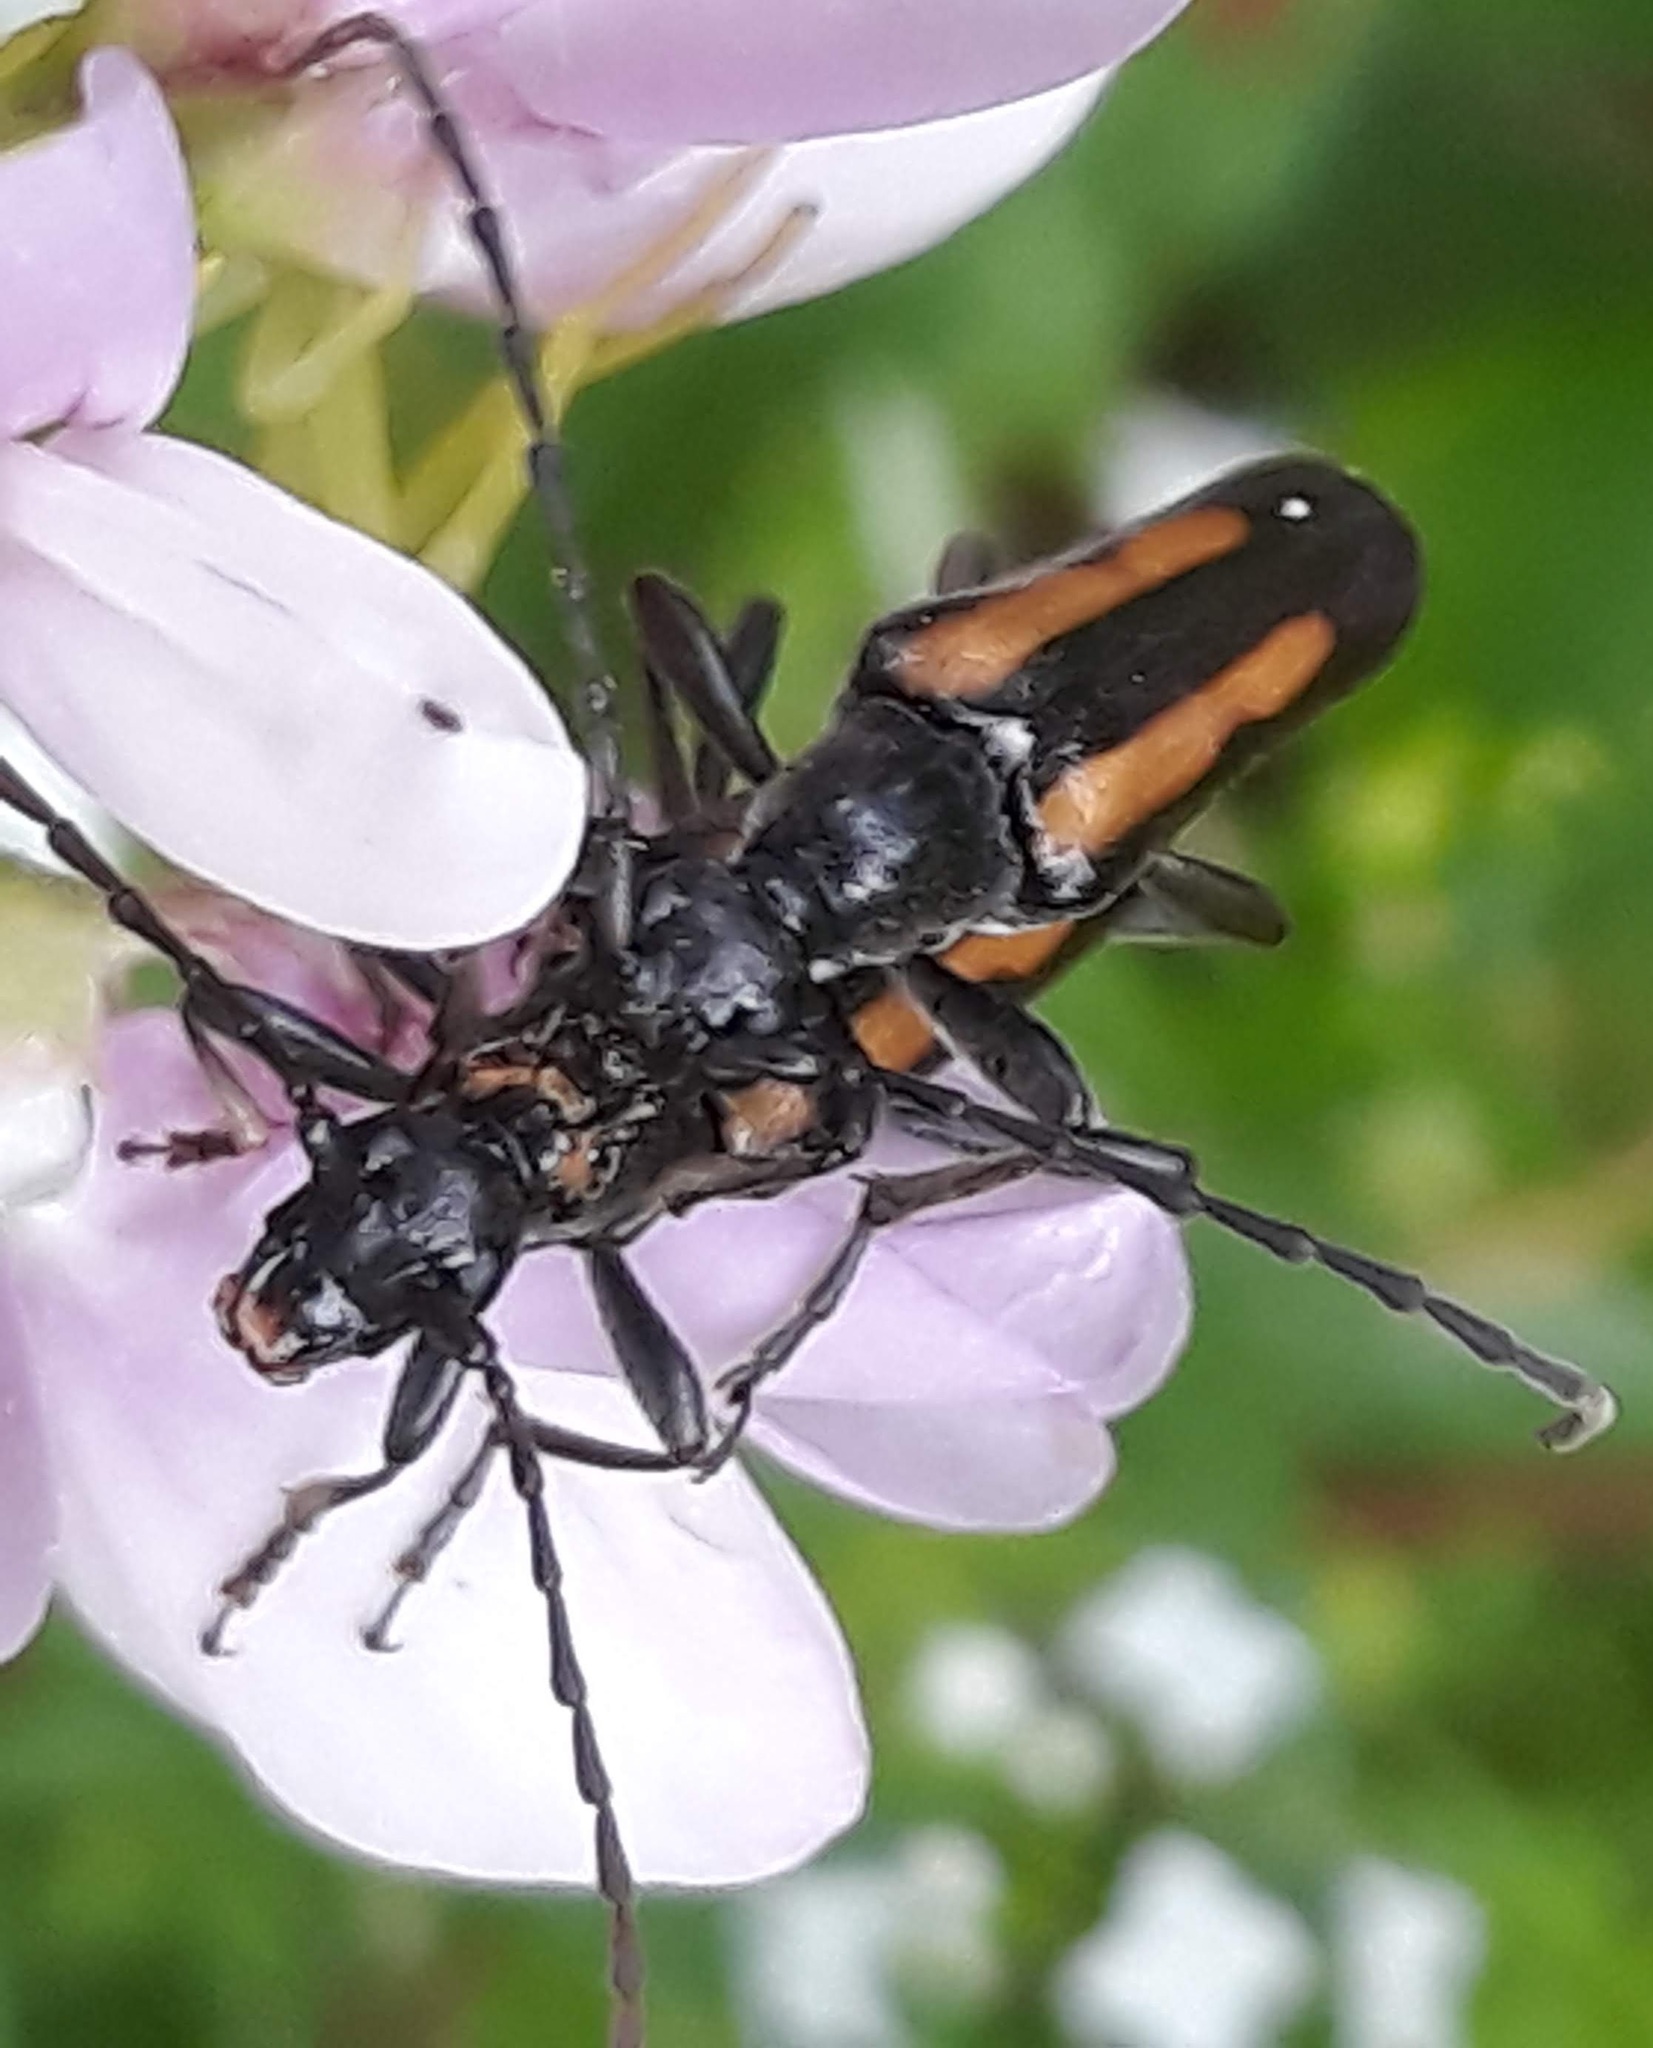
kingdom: Animalia
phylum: Arthropoda
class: Insecta
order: Coleoptera
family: Cerambycidae
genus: Strangalepta
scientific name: Strangalepta abbreviata
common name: Strangalepta flower longhorn beetle
